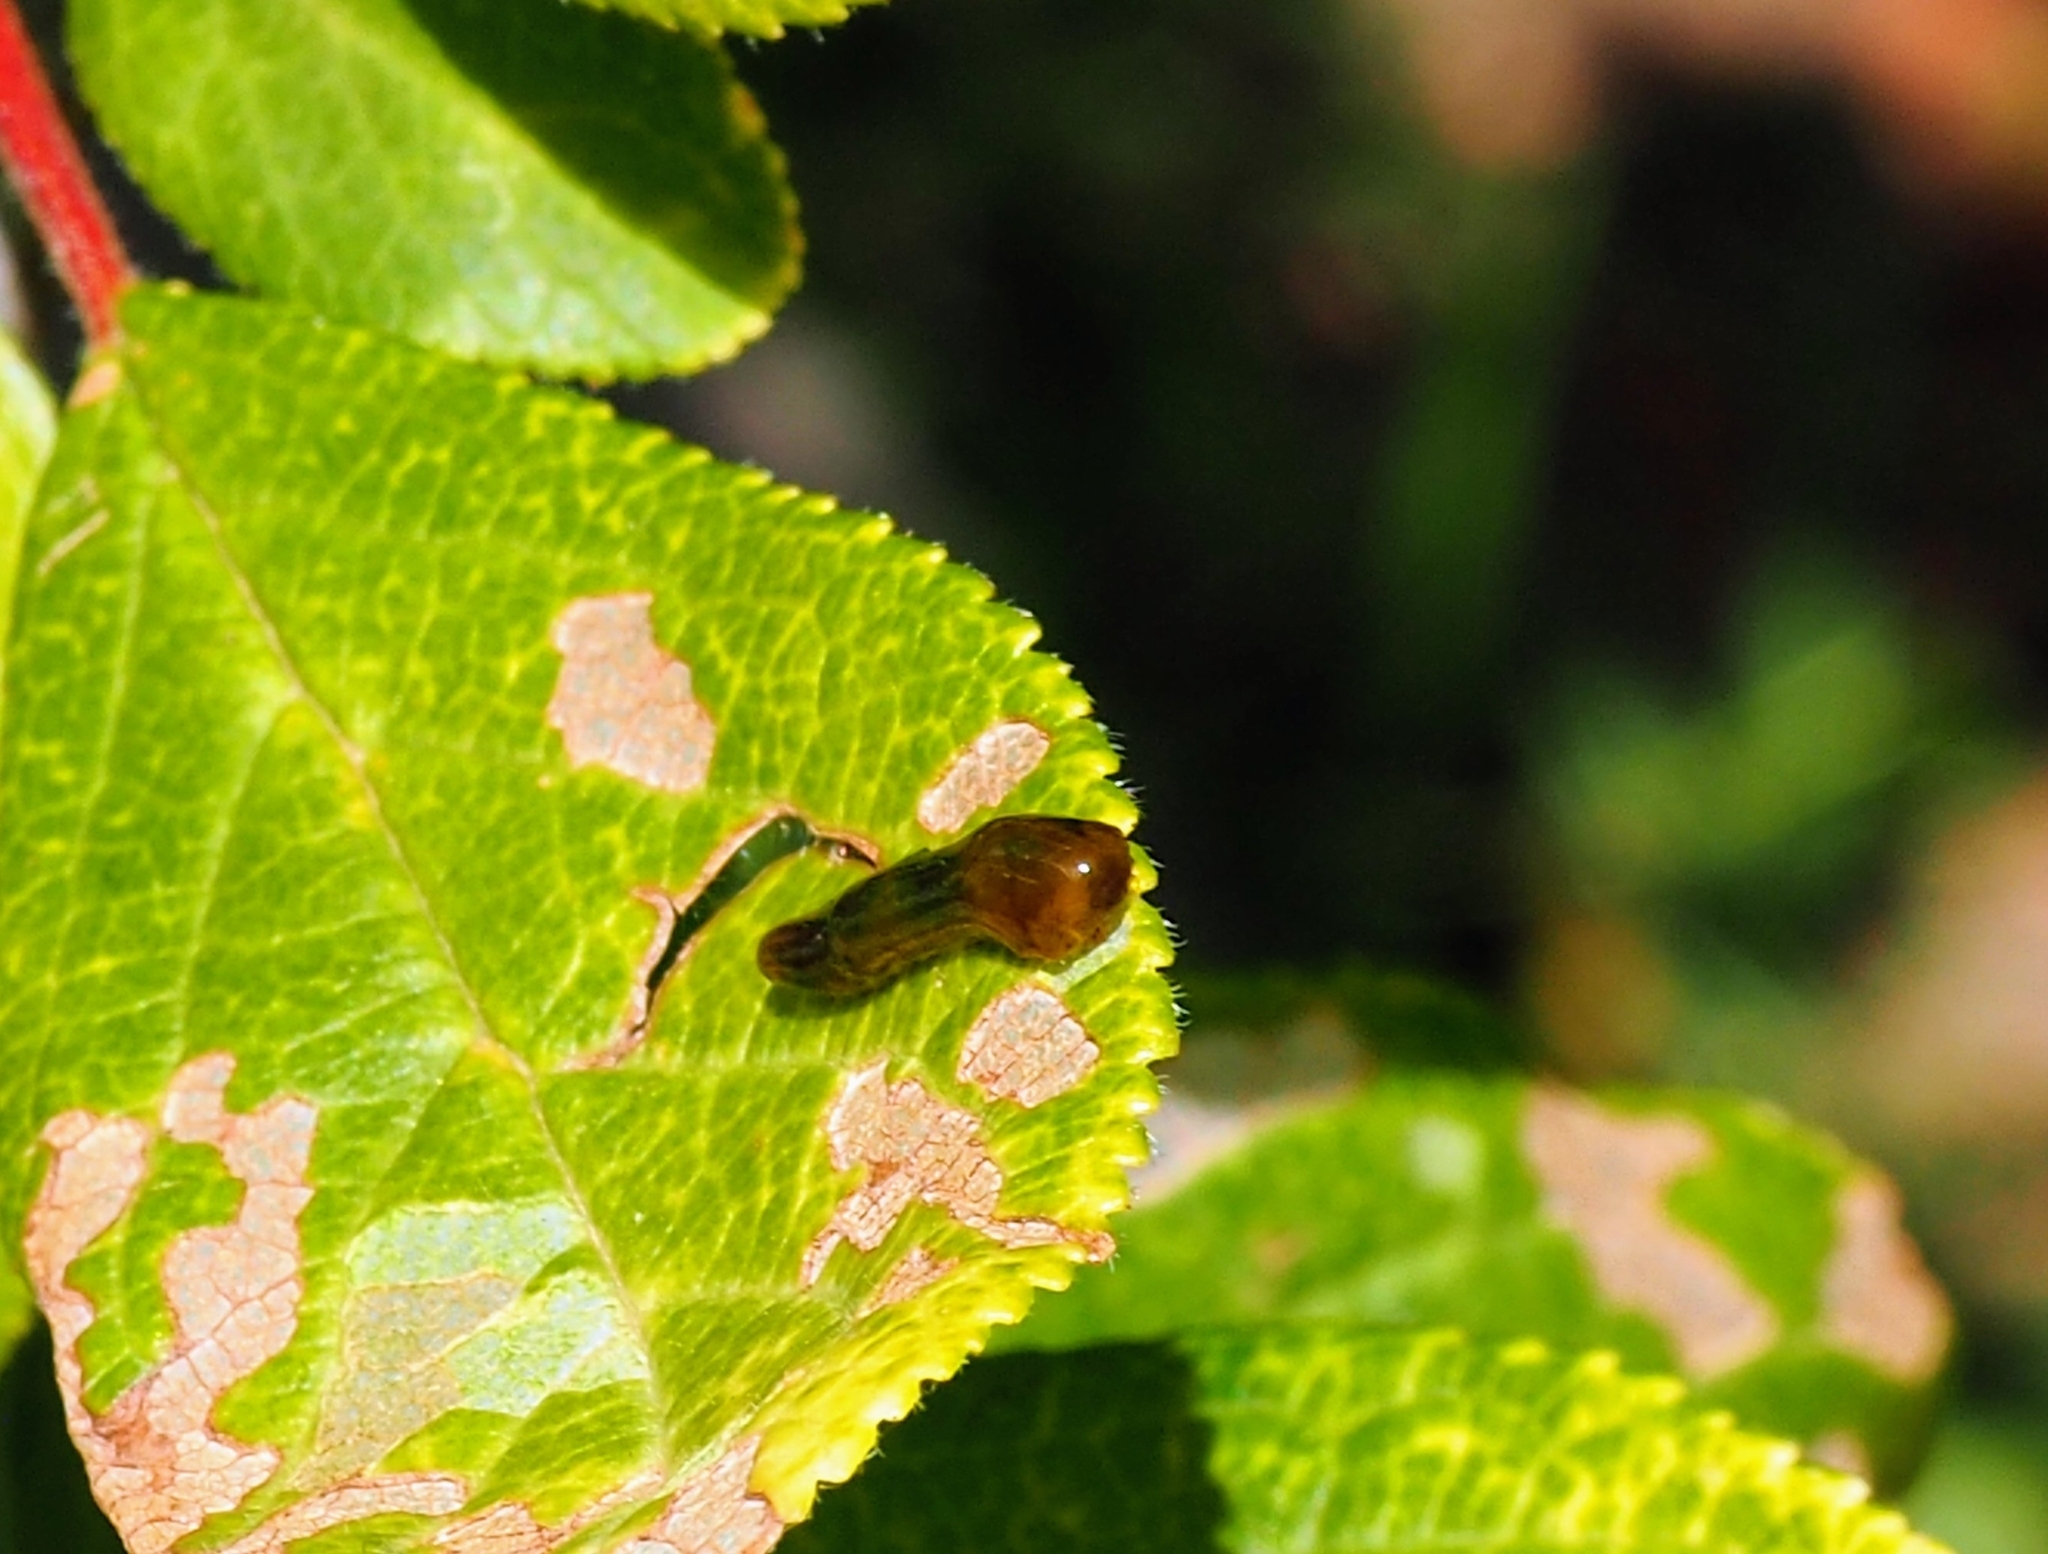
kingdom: Animalia
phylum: Arthropoda
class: Insecta
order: Hymenoptera
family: Tenthredinidae
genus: Caliroa
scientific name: Caliroa cerasi
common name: Pear sawfly
